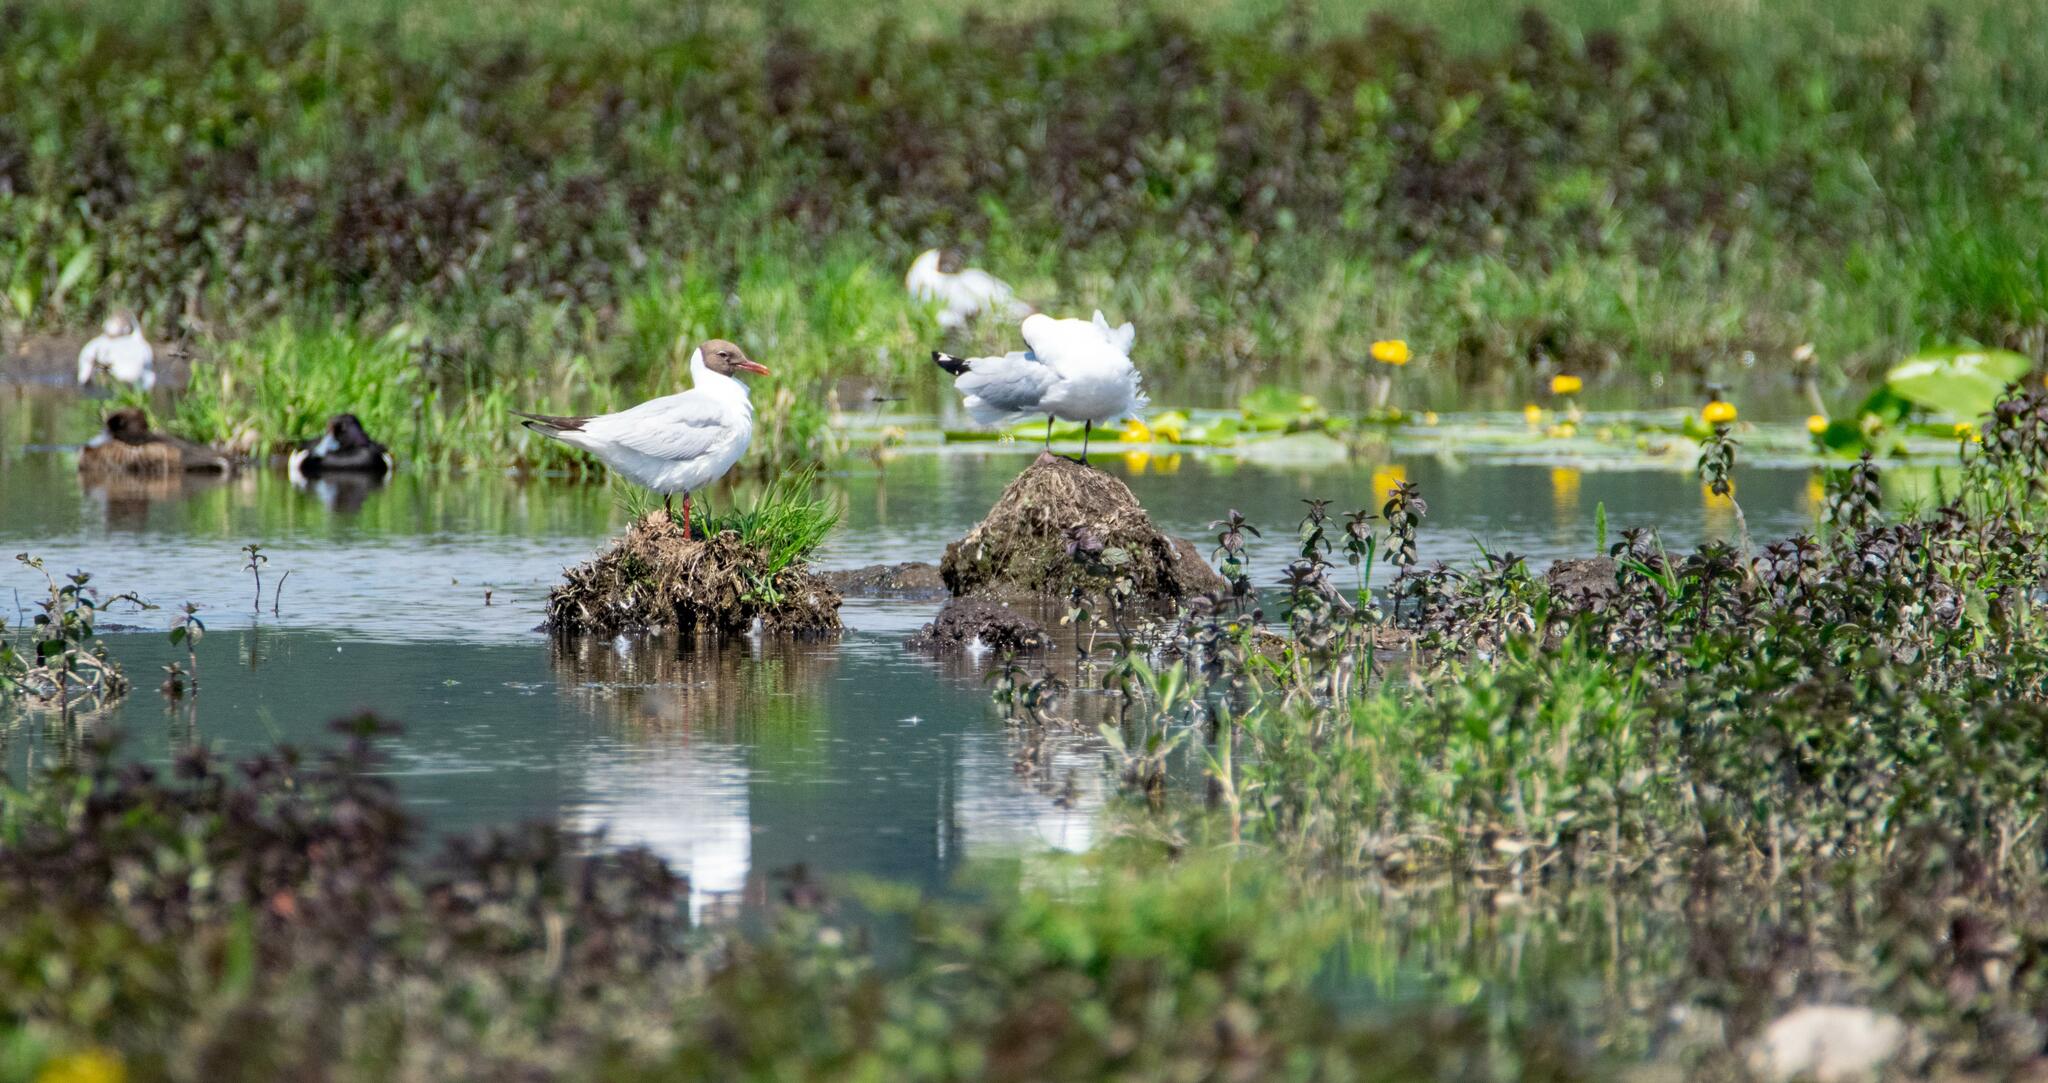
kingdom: Animalia
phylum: Chordata
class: Aves
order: Charadriiformes
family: Laridae
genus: Chroicocephalus
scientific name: Chroicocephalus ridibundus
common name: Black-headed gull
